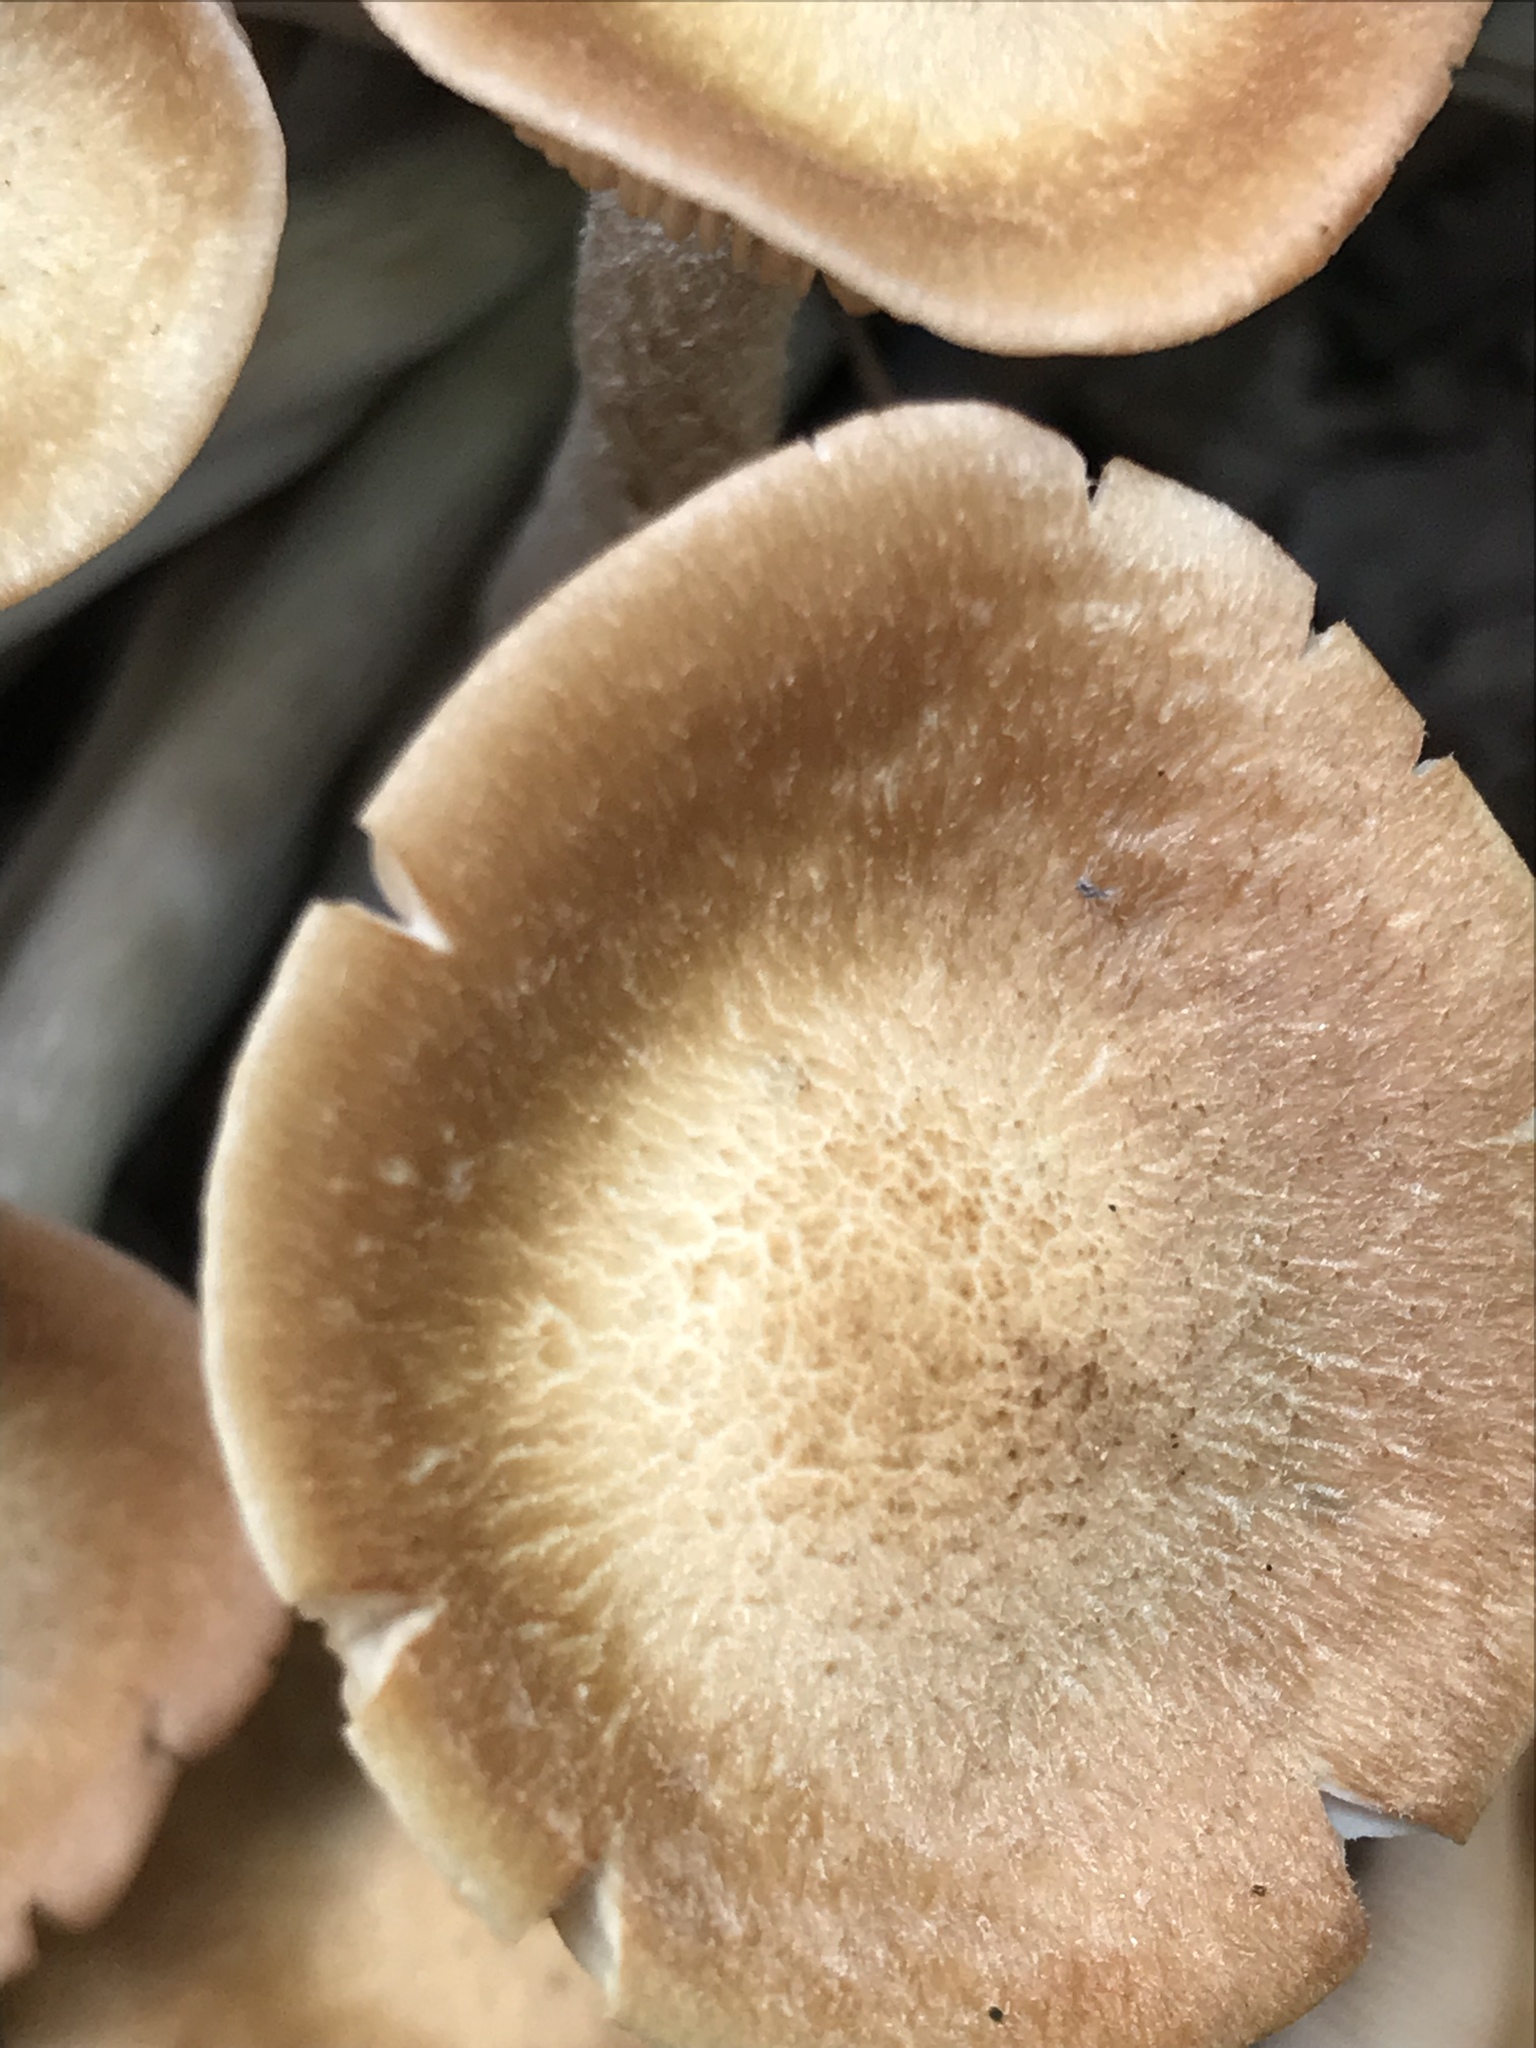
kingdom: Fungi
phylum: Basidiomycota
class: Agaricomycetes
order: Agaricales
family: Physalacriaceae
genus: Desarmillaria
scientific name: Desarmillaria caespitosa
